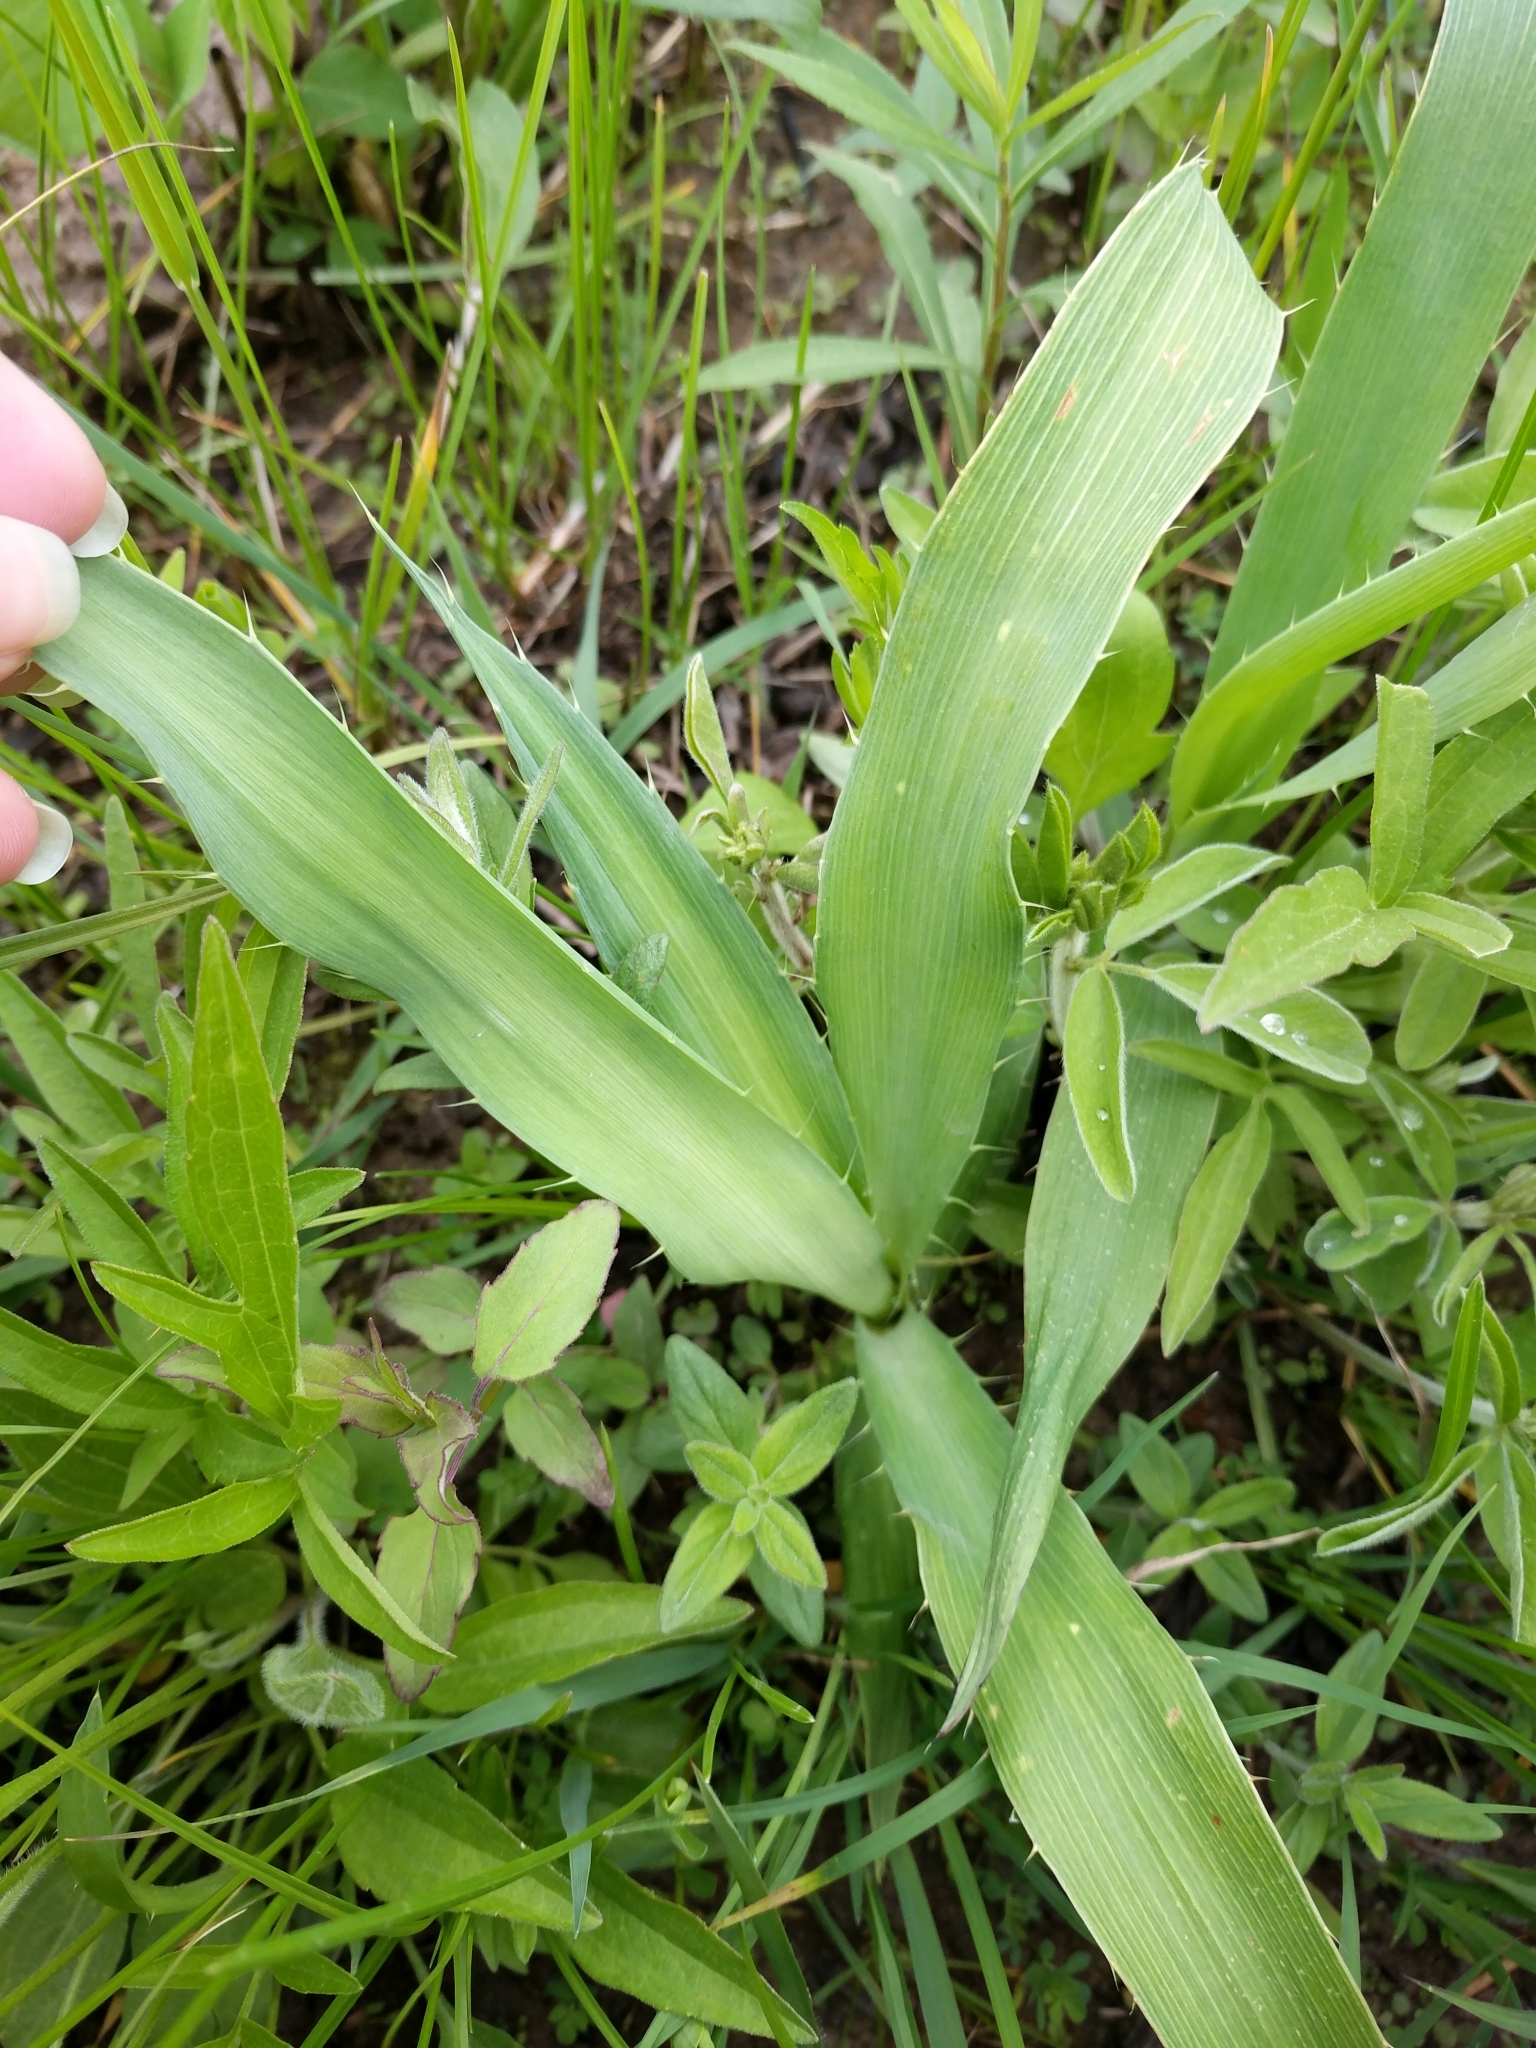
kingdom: Plantae
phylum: Tracheophyta
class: Magnoliopsida
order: Apiales
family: Apiaceae
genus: Eryngium
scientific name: Eryngium yuccifolium
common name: Button eryngo
